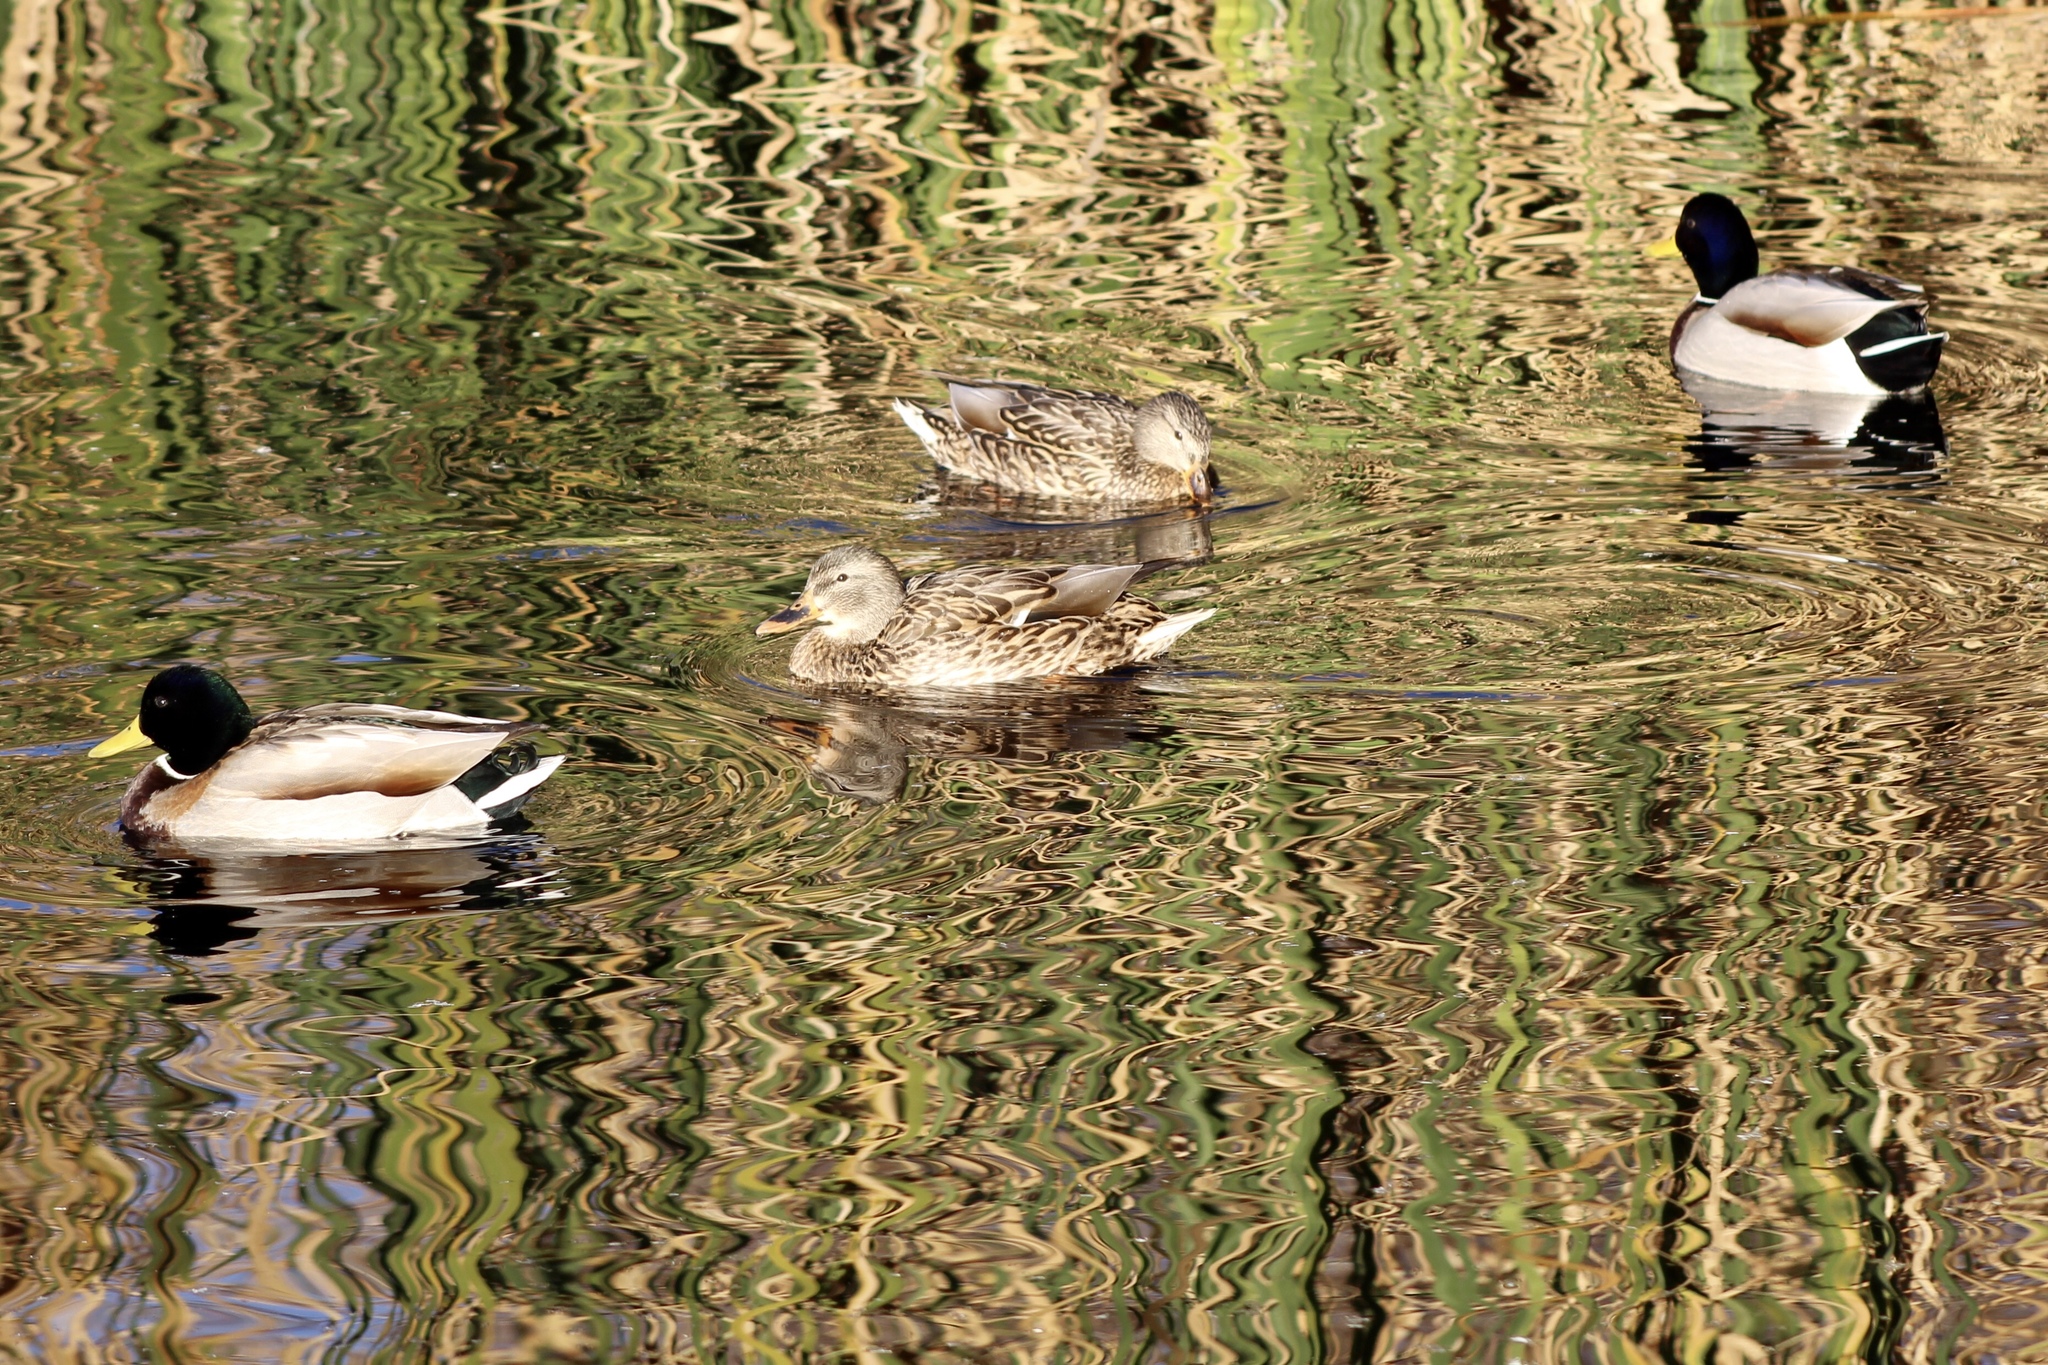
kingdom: Animalia
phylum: Chordata
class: Aves
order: Anseriformes
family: Anatidae
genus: Anas
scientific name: Anas platyrhynchos
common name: Mallard
